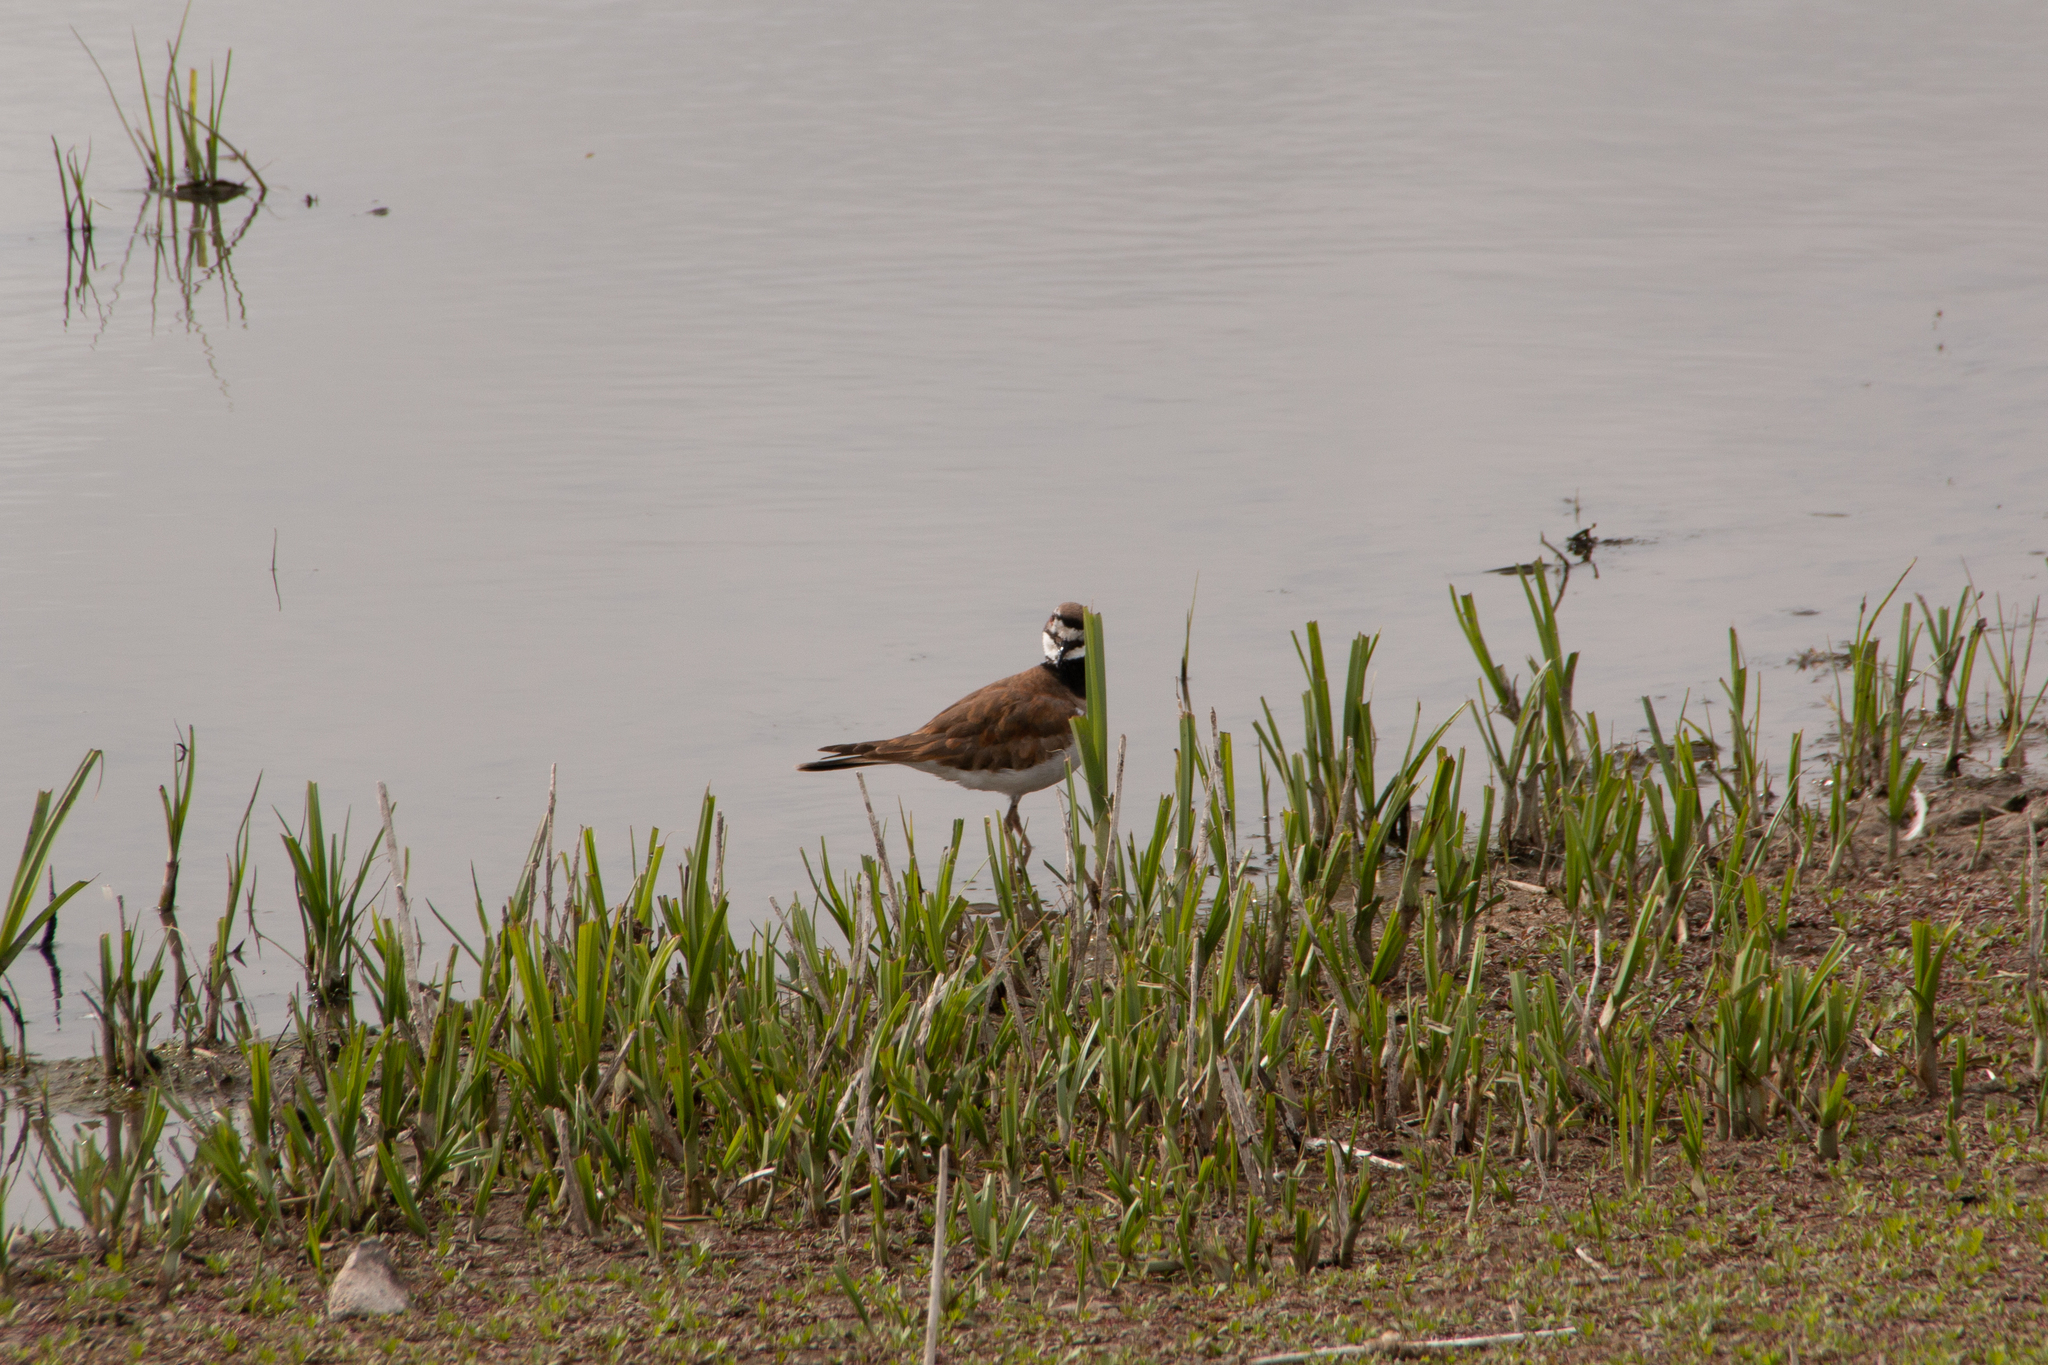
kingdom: Animalia
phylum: Chordata
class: Aves
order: Charadriiformes
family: Charadriidae
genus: Charadrius
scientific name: Charadrius vociferus
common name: Killdeer
